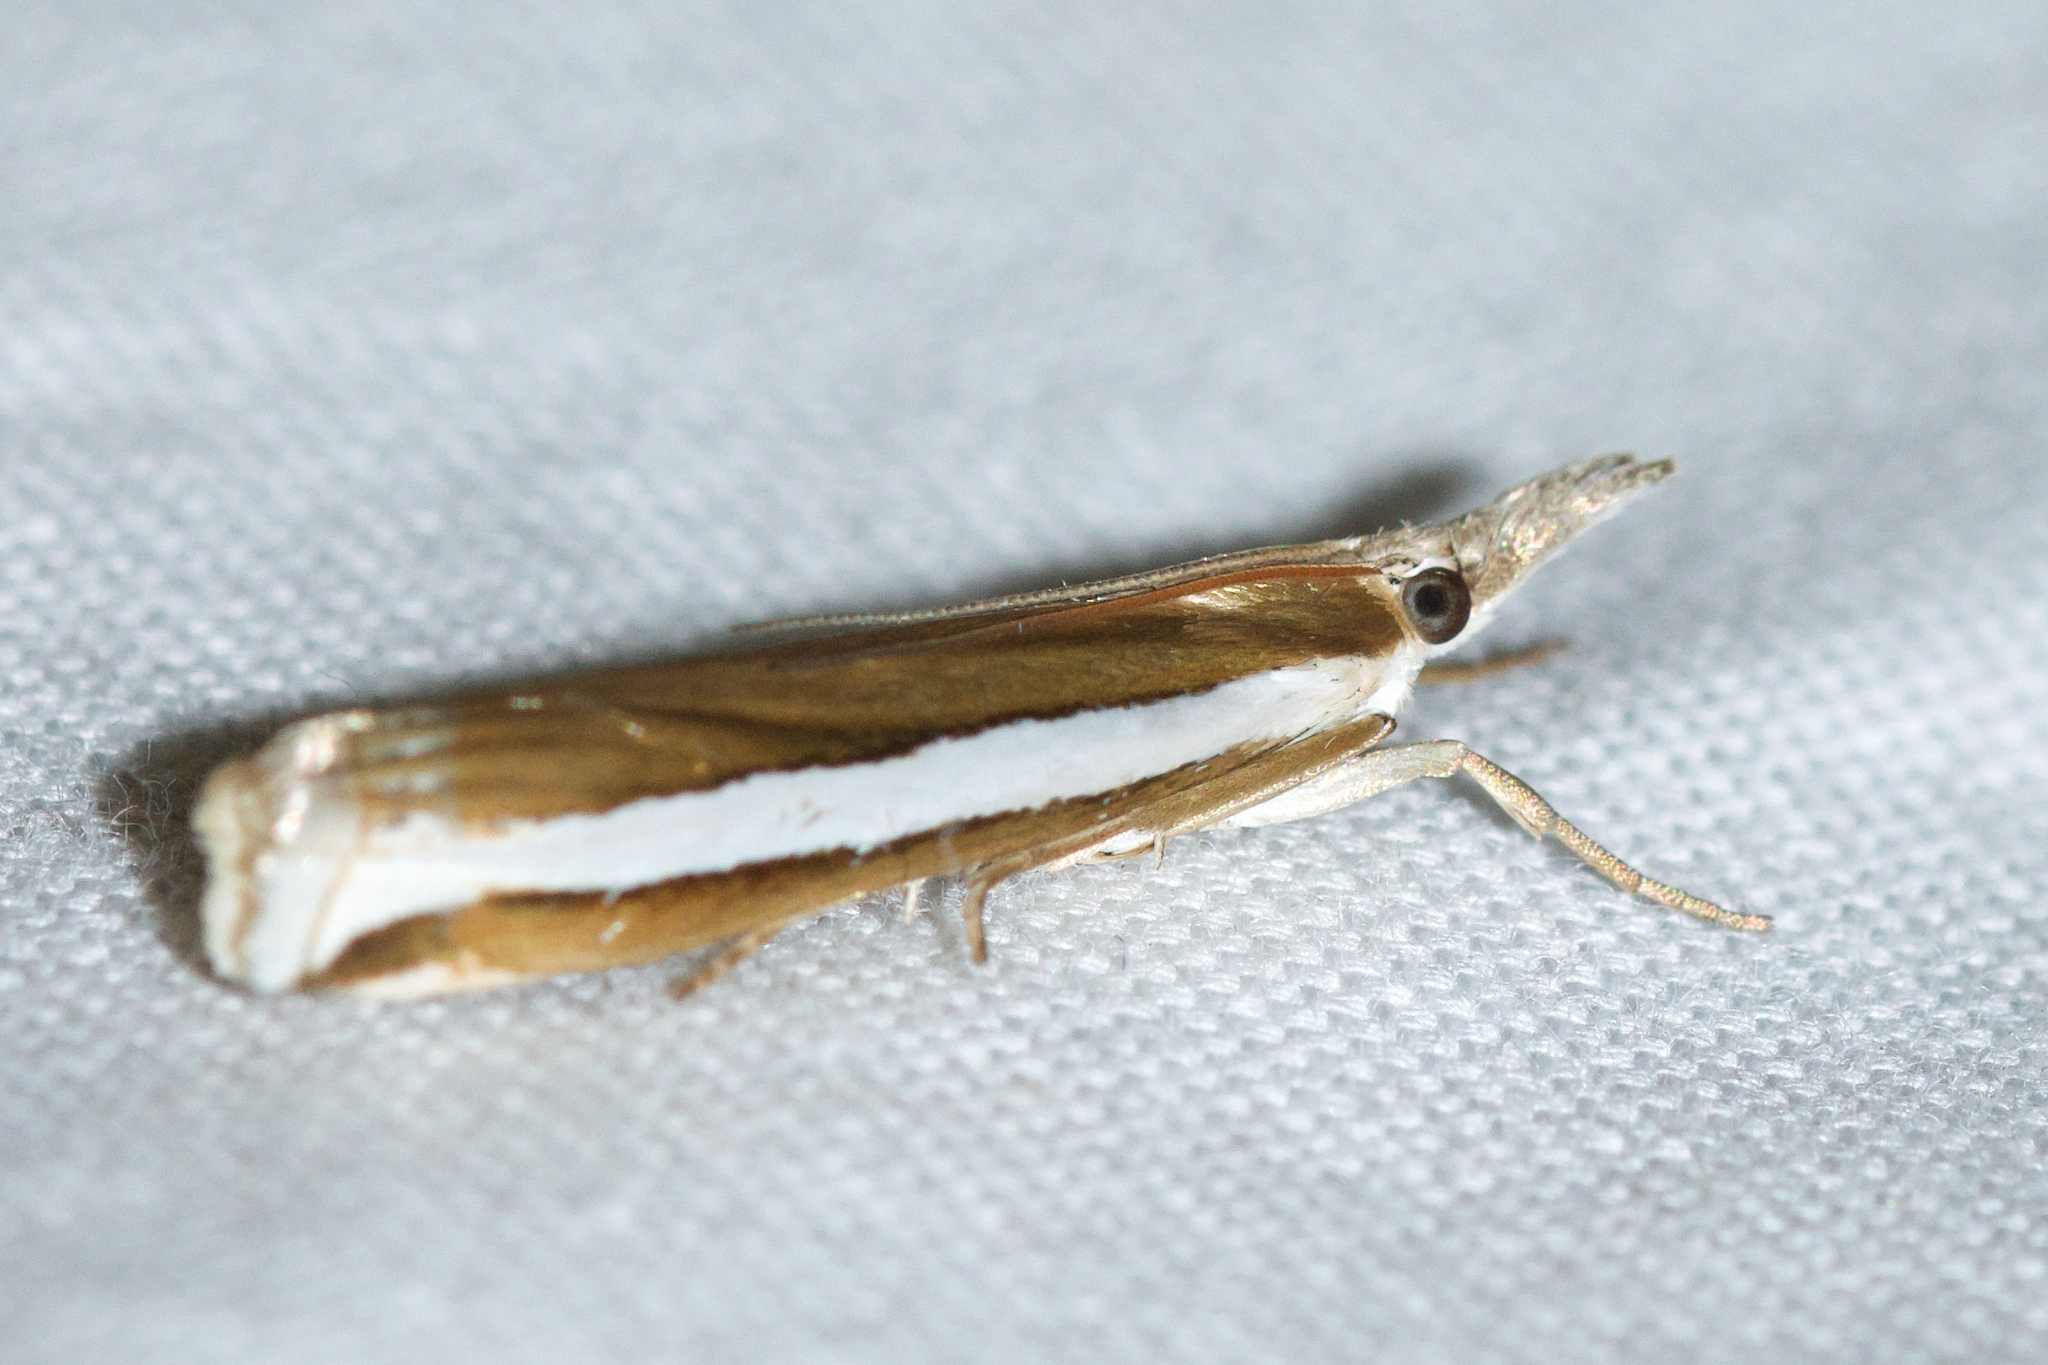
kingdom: Animalia
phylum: Arthropoda
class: Insecta
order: Lepidoptera
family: Crambidae
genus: Crambus
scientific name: Crambus unistriatellus
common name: Wide-stripe grass-veneer moth
